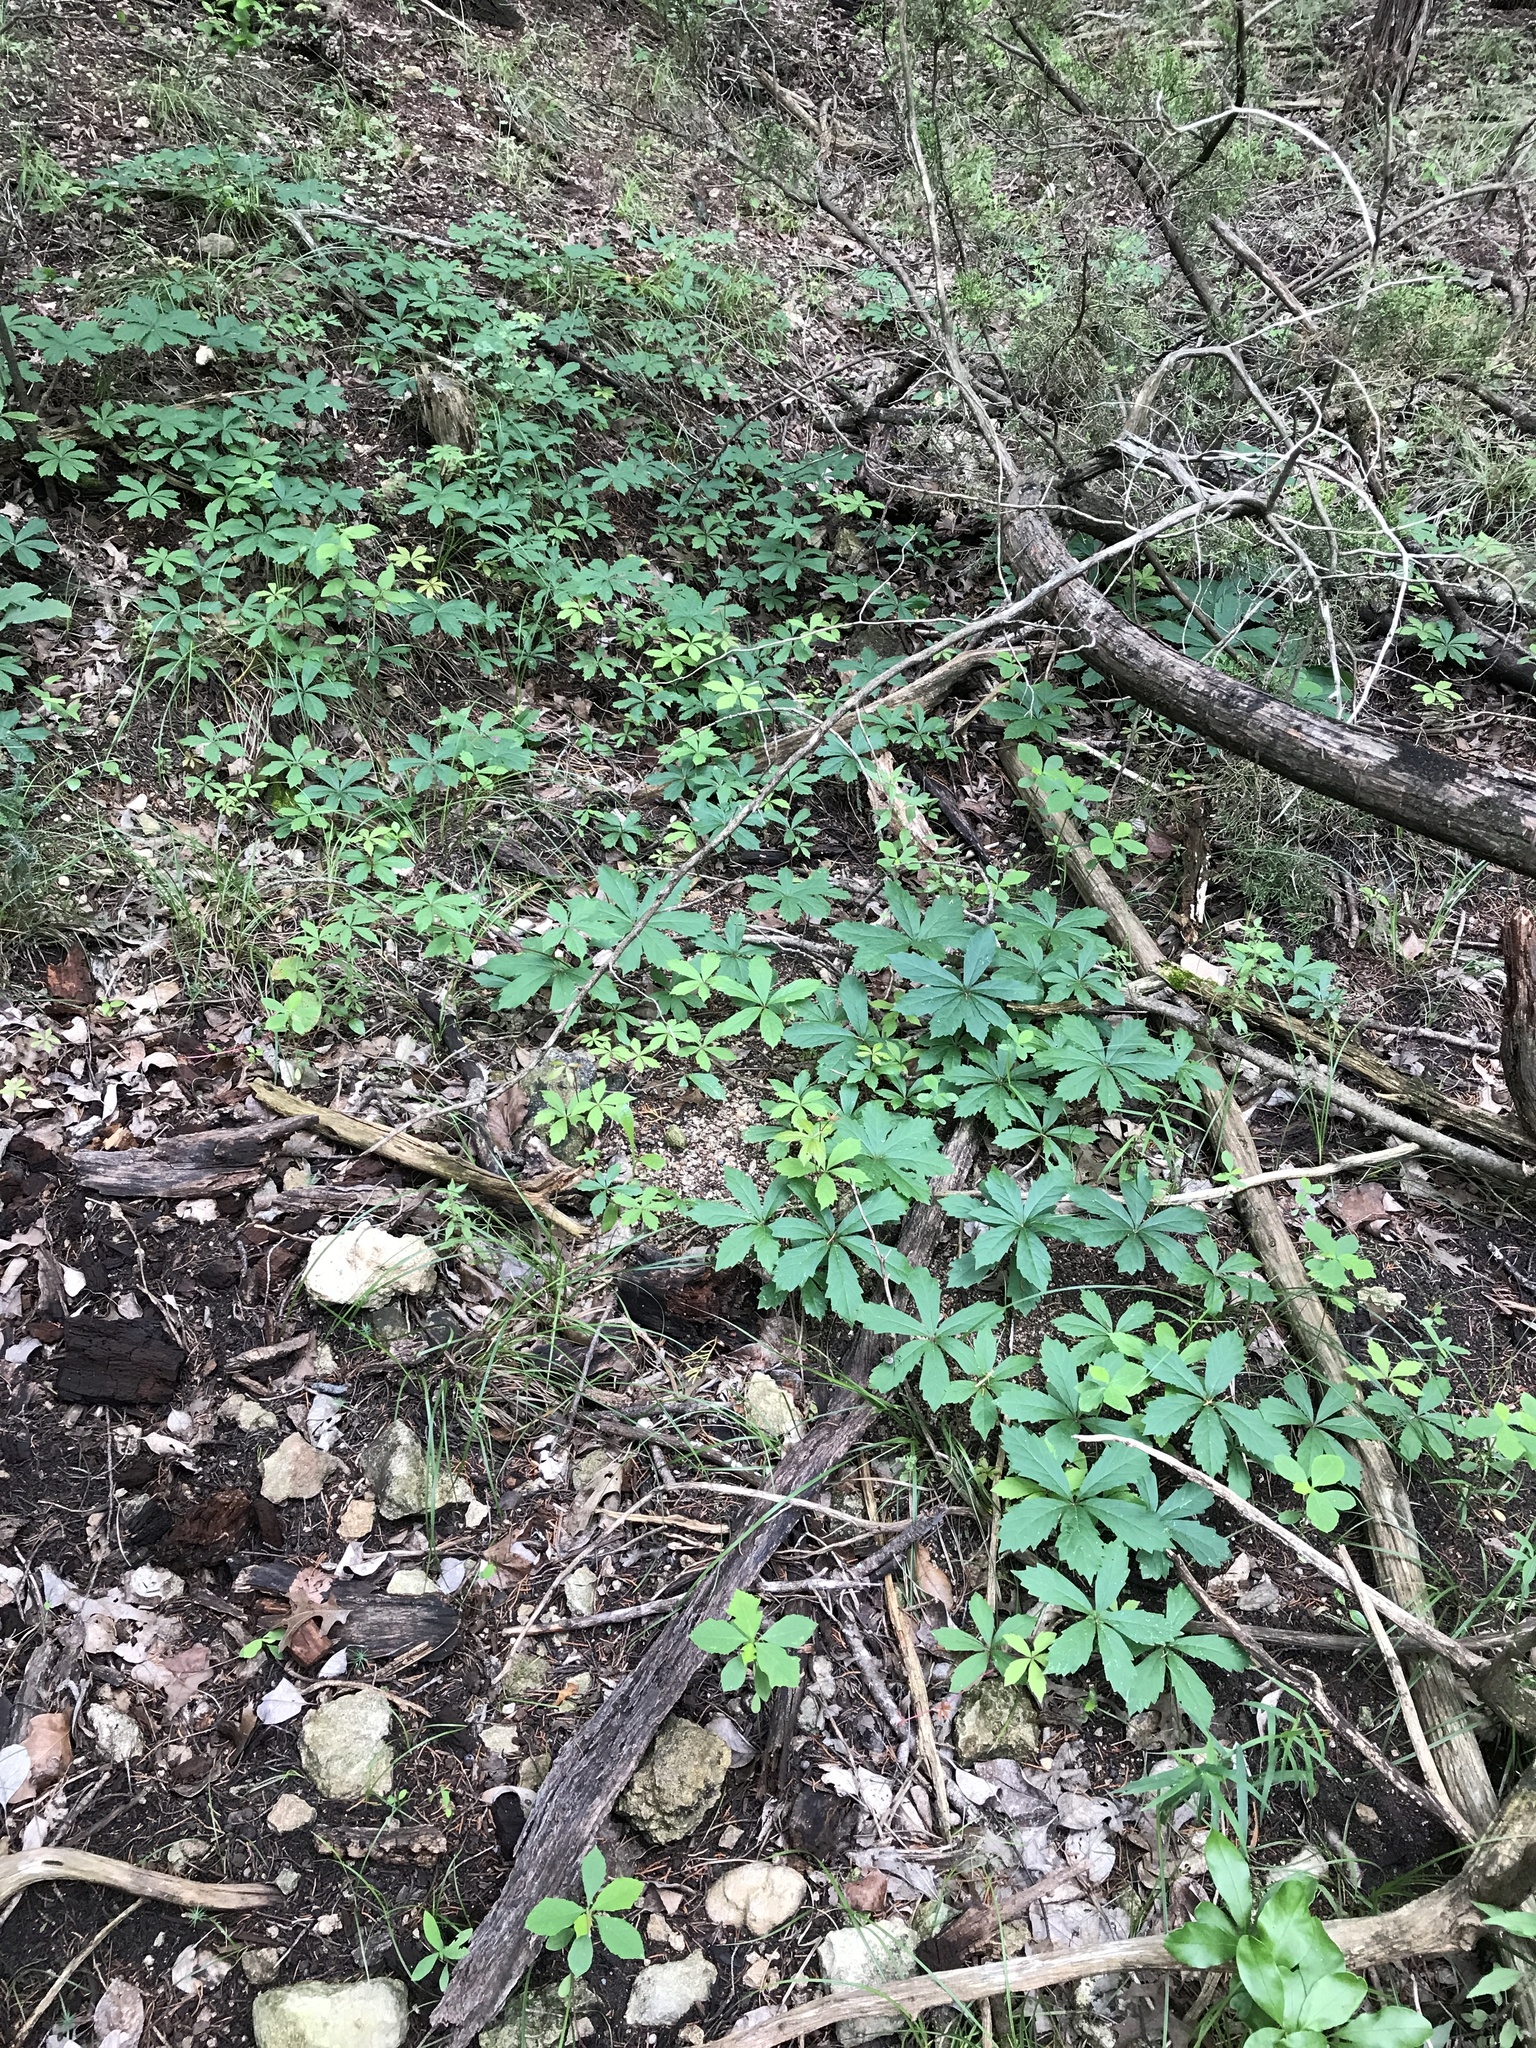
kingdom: Plantae
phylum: Tracheophyta
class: Magnoliopsida
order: Vitales
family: Vitaceae
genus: Parthenocissus
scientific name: Parthenocissus heptaphylla
